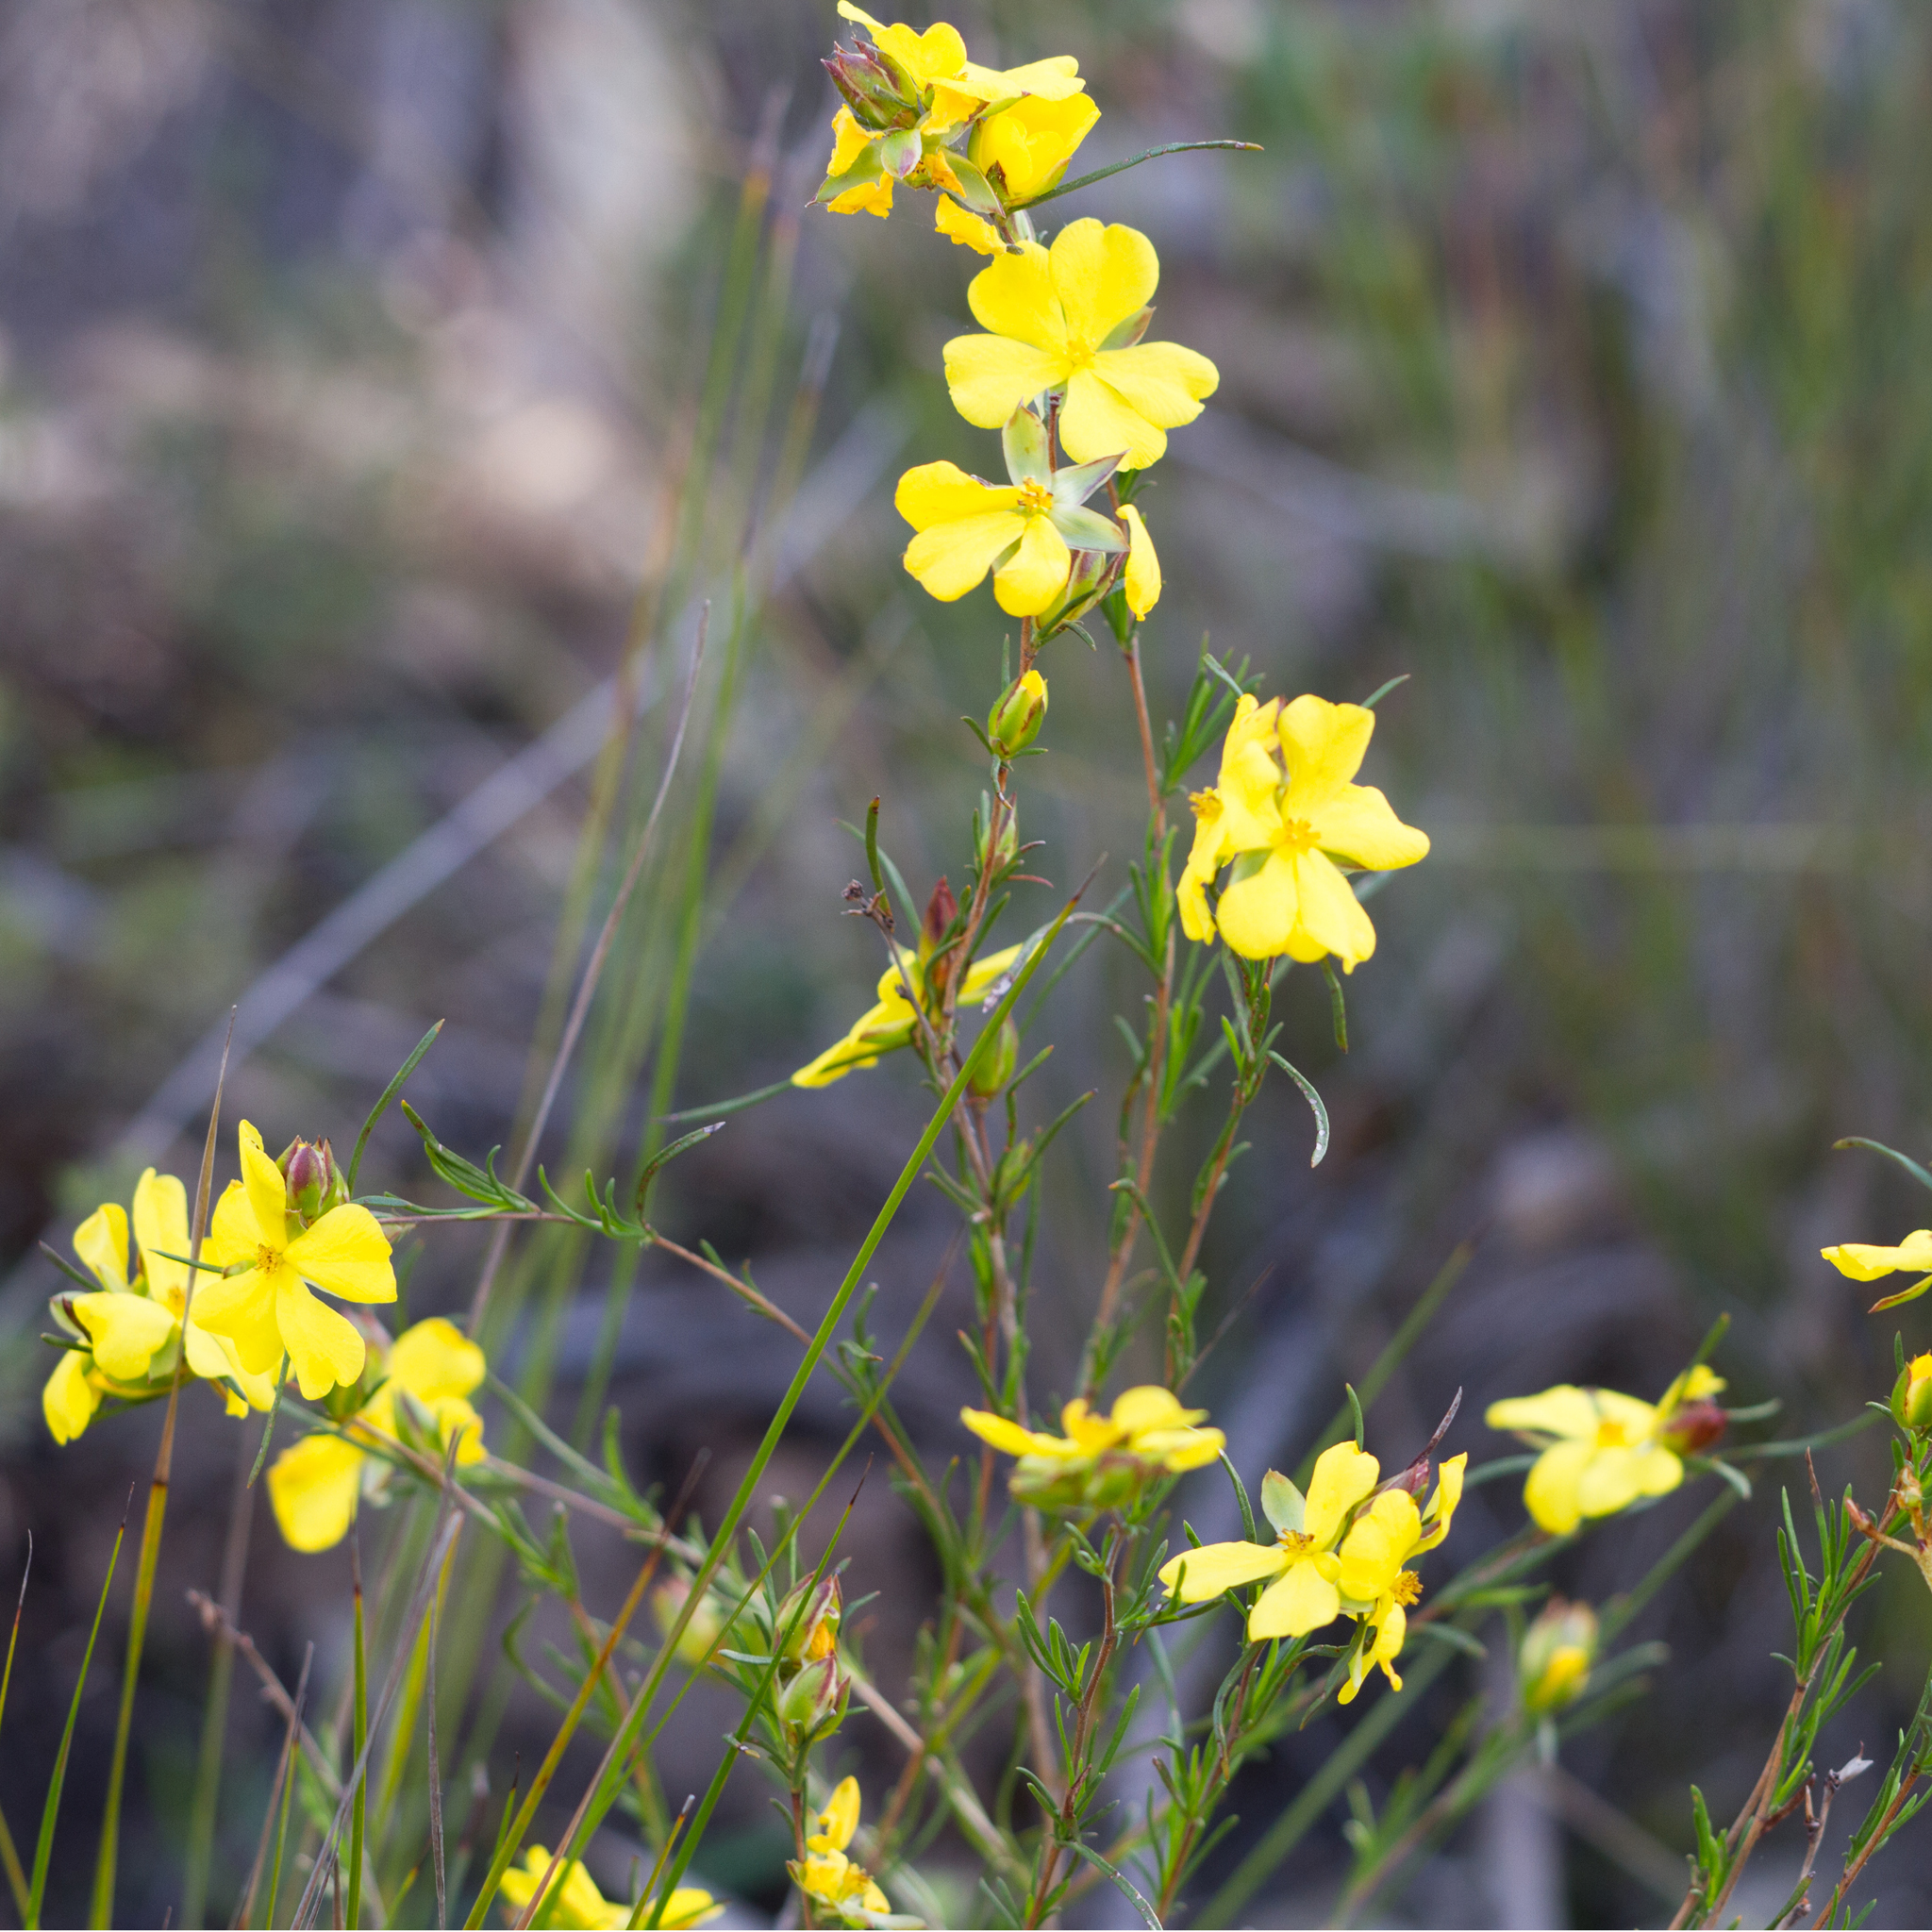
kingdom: Plantae
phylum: Tracheophyta
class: Magnoliopsida
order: Dilleniales
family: Dilleniaceae
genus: Hibbertia
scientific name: Hibbertia virgata
